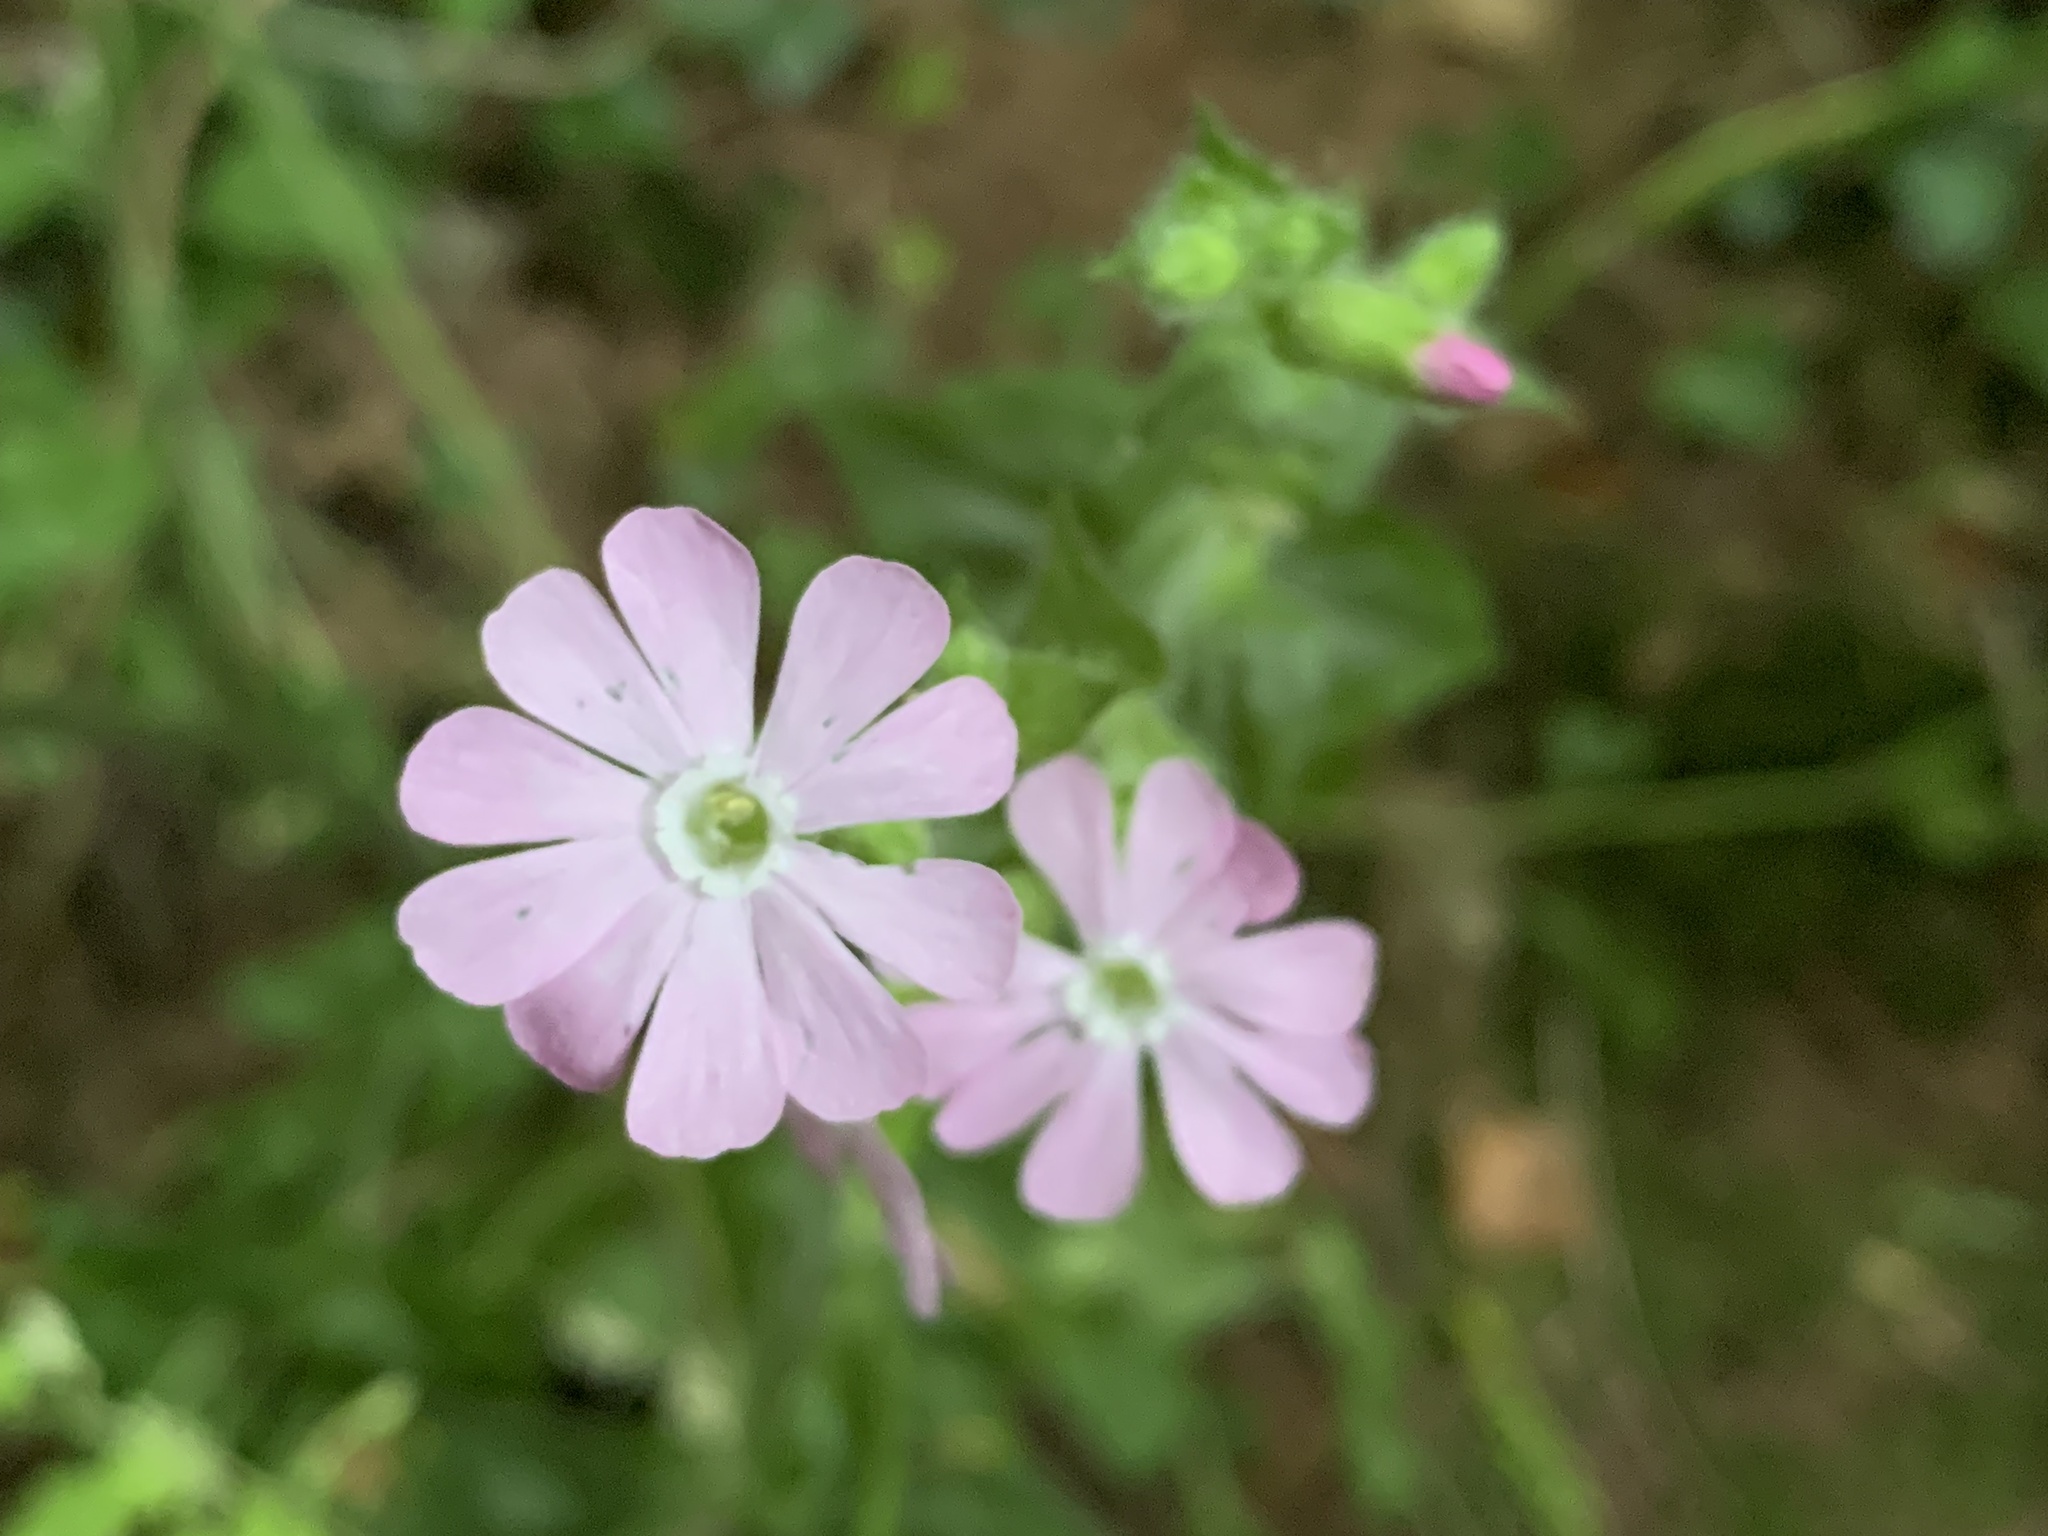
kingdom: Plantae
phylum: Tracheophyta
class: Magnoliopsida
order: Caryophyllales
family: Caryophyllaceae
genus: Silene
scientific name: Silene hampeana
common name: Catchfly
